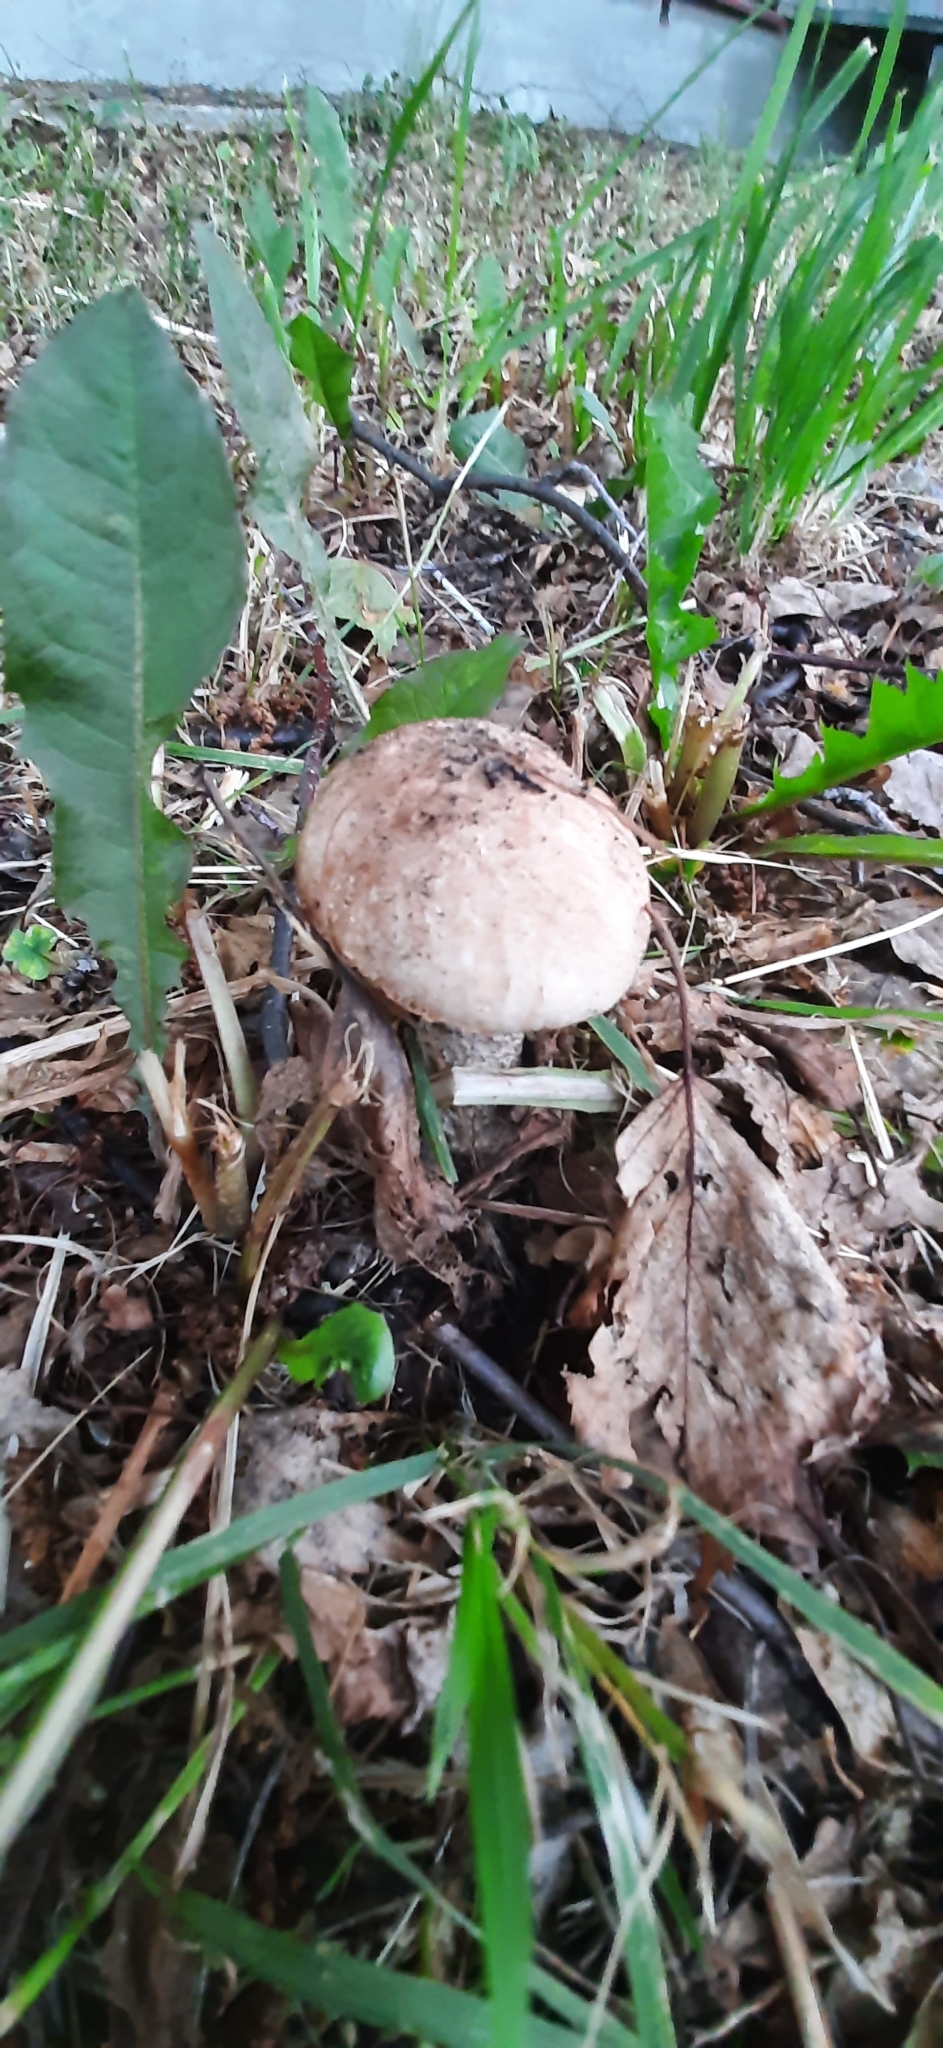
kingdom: Fungi
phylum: Basidiomycota
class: Agaricomycetes
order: Boletales
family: Boletaceae
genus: Leccinum
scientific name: Leccinum scabrum
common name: Blushing bolete
